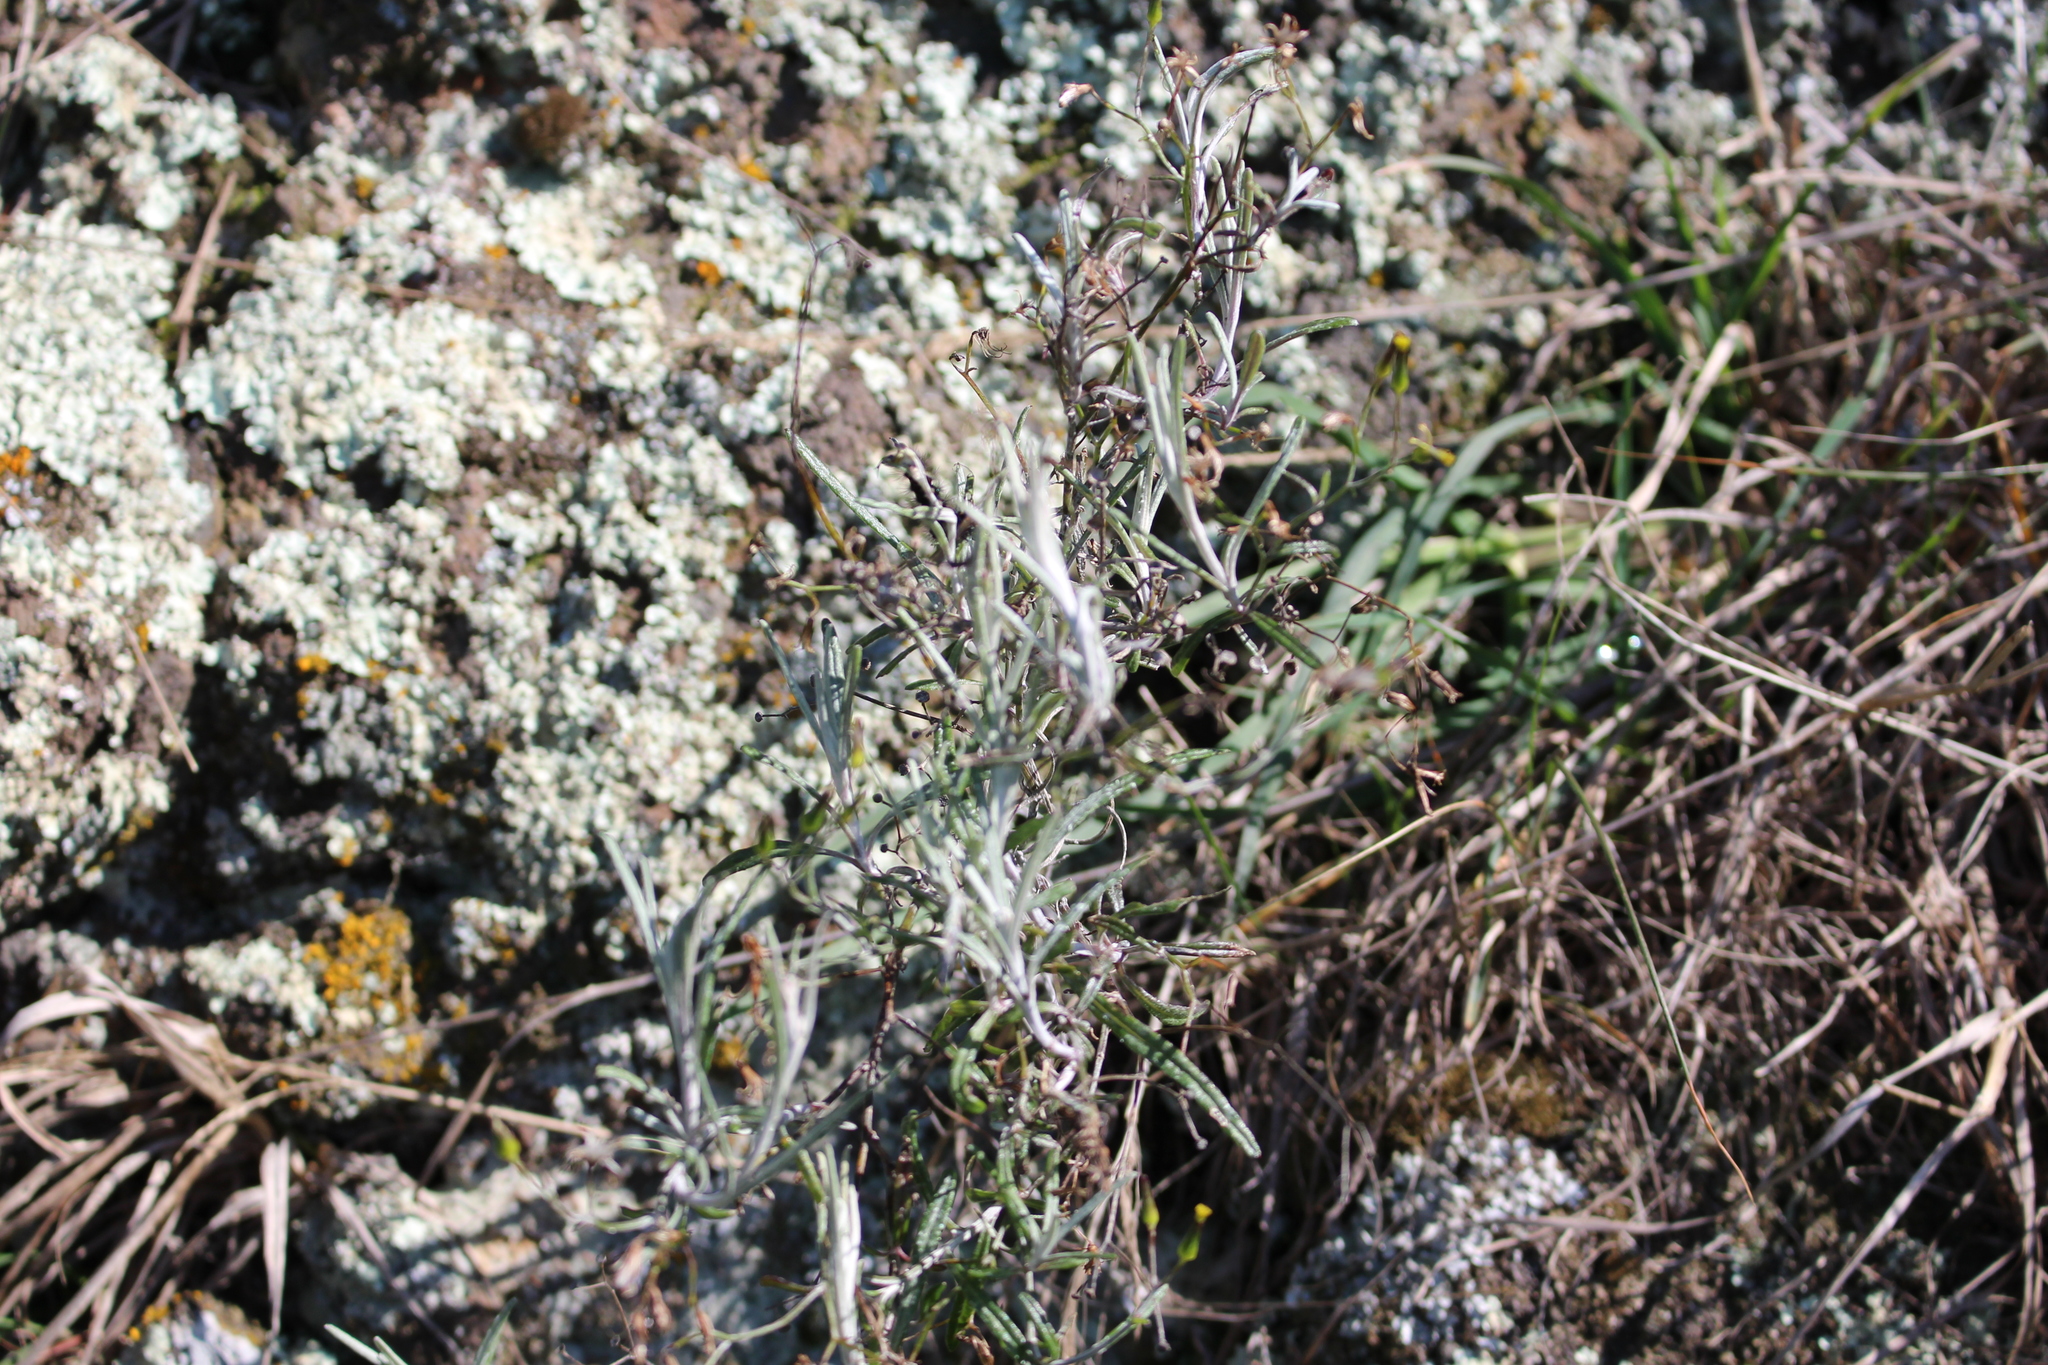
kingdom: Plantae
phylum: Tracheophyta
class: Magnoliopsida
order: Asterales
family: Asteraceae
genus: Senecio
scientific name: Senecio quadridentatus
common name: Cotton fireweed
